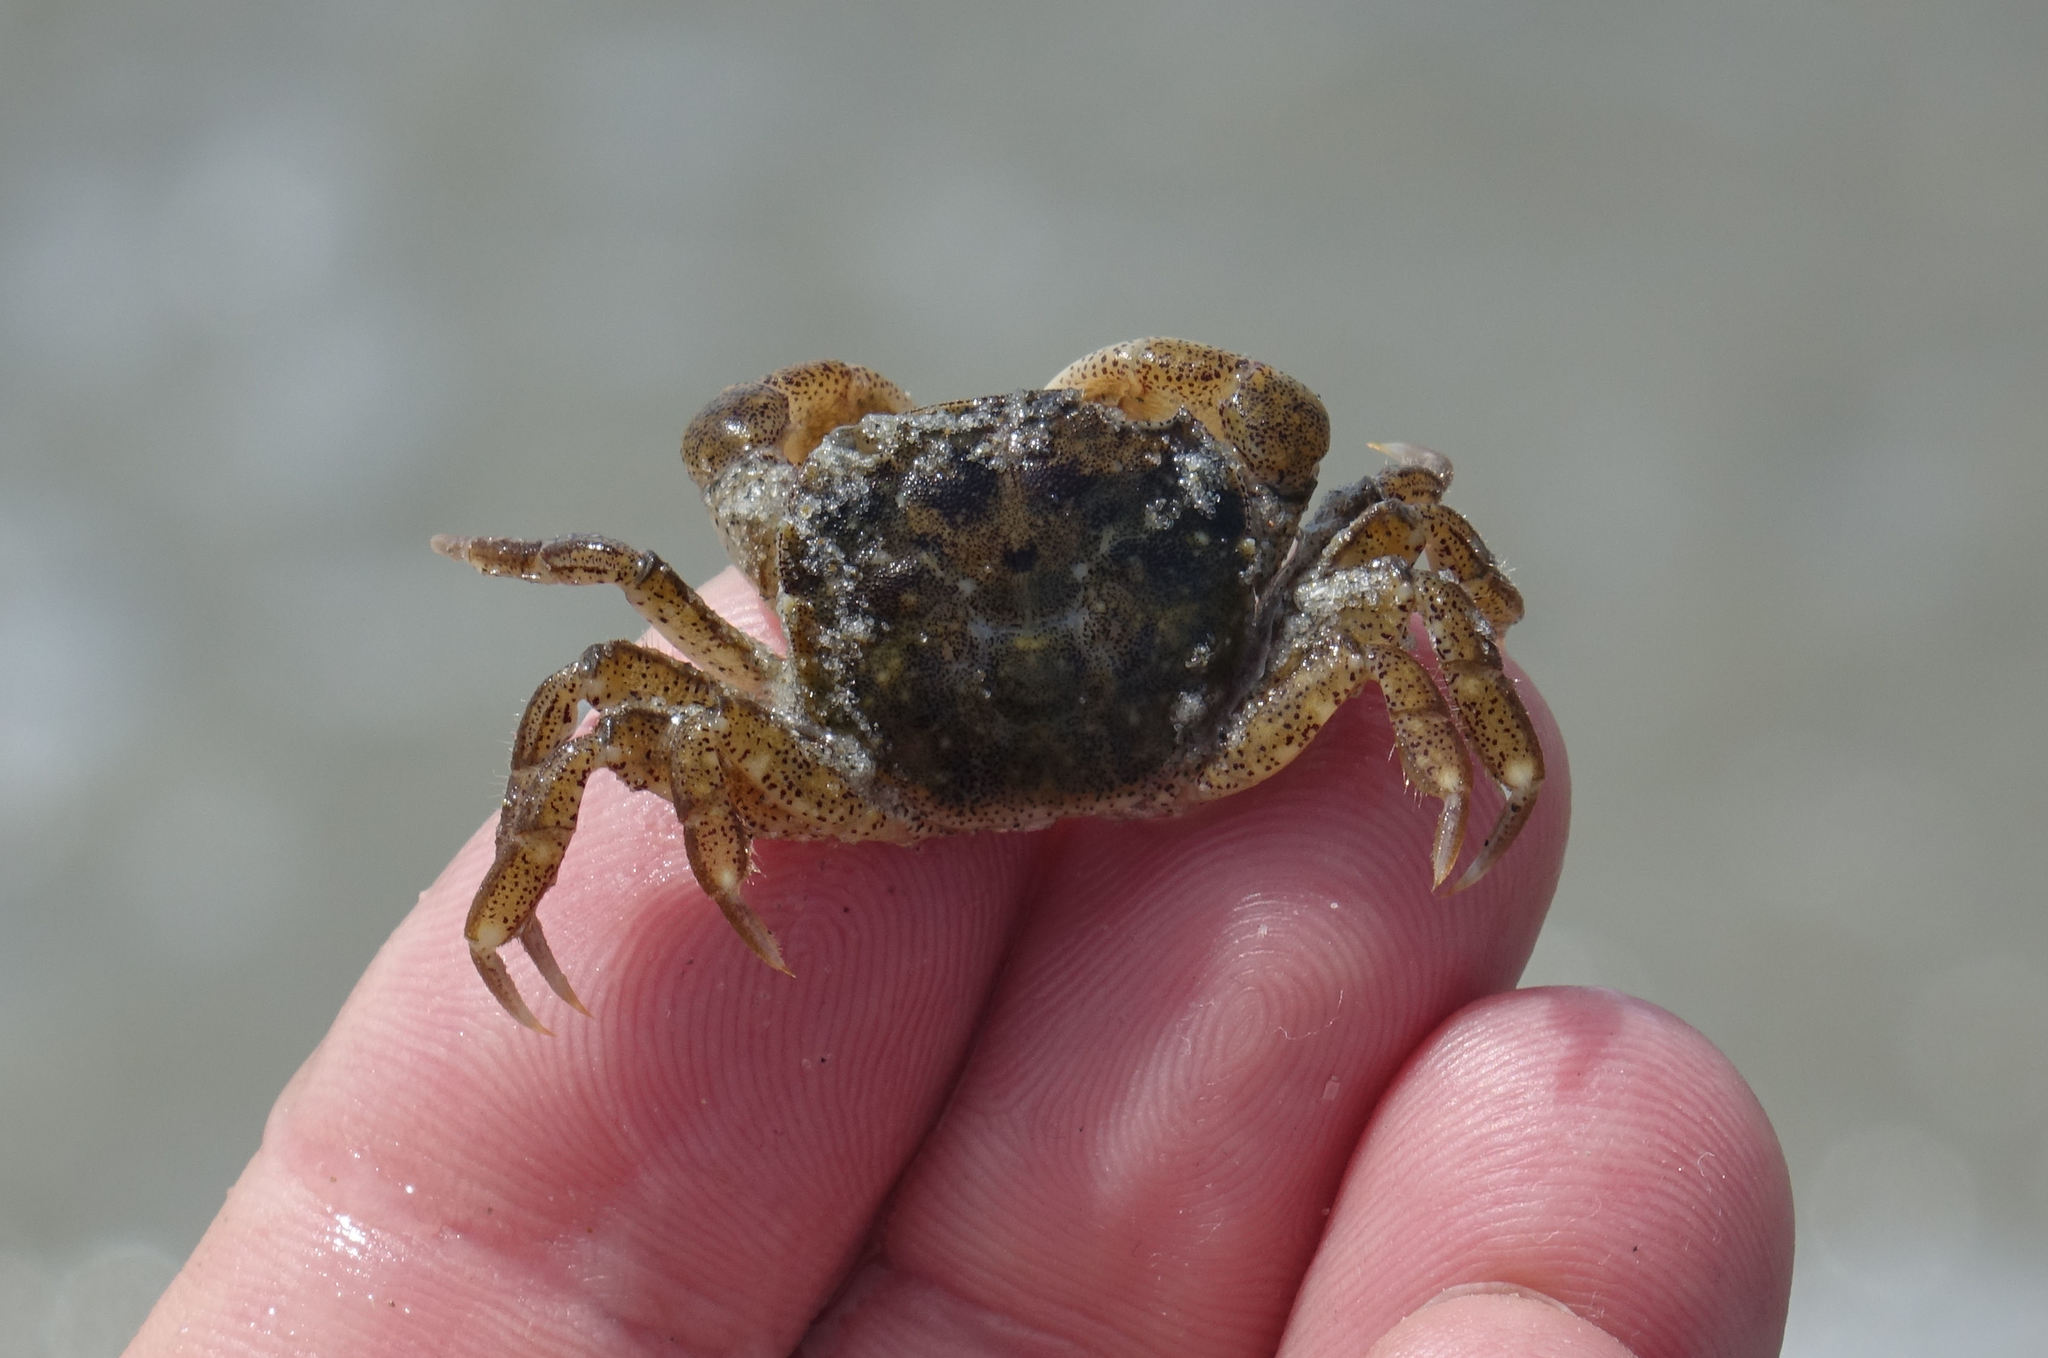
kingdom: Animalia
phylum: Arthropoda
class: Malacostraca
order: Decapoda
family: Varunidae
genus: Hemigrapsus
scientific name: Hemigrapsus crenulatus
